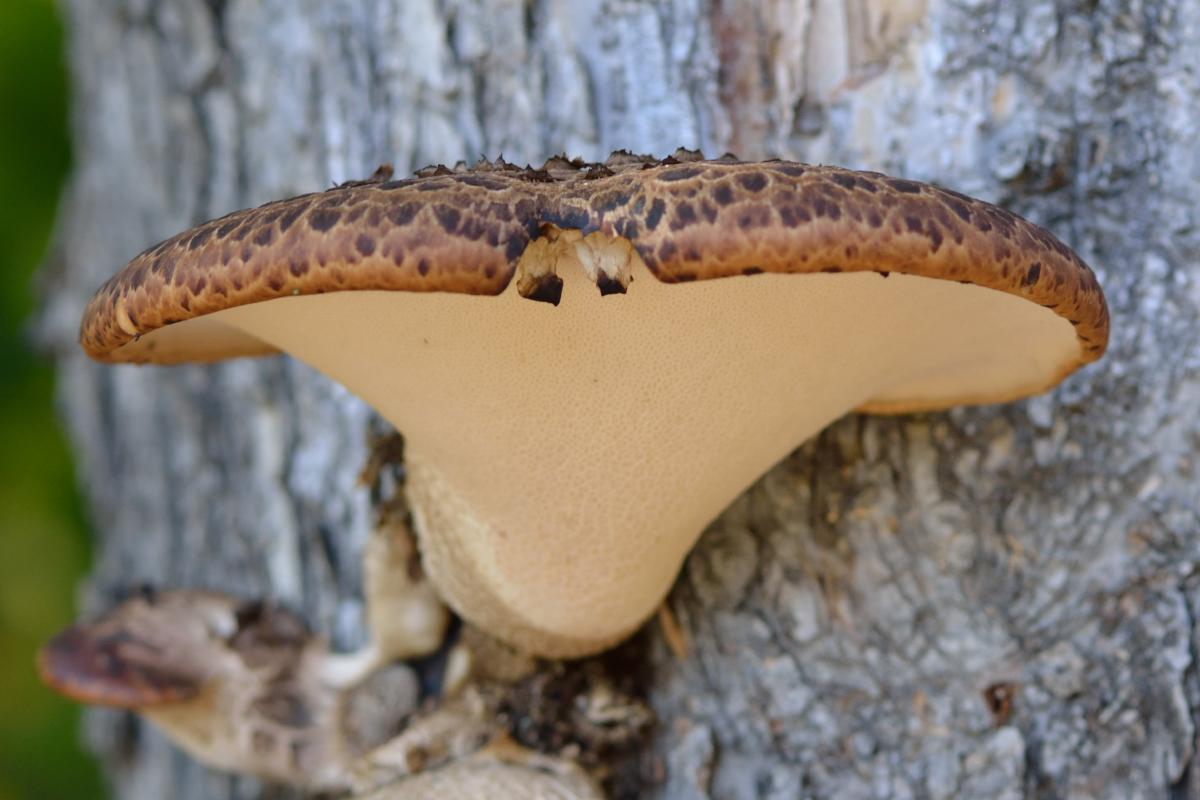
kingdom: Fungi
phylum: Basidiomycota
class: Agaricomycetes
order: Polyporales
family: Polyporaceae
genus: Cerioporus
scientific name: Cerioporus squamosus
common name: Dryad's saddle
